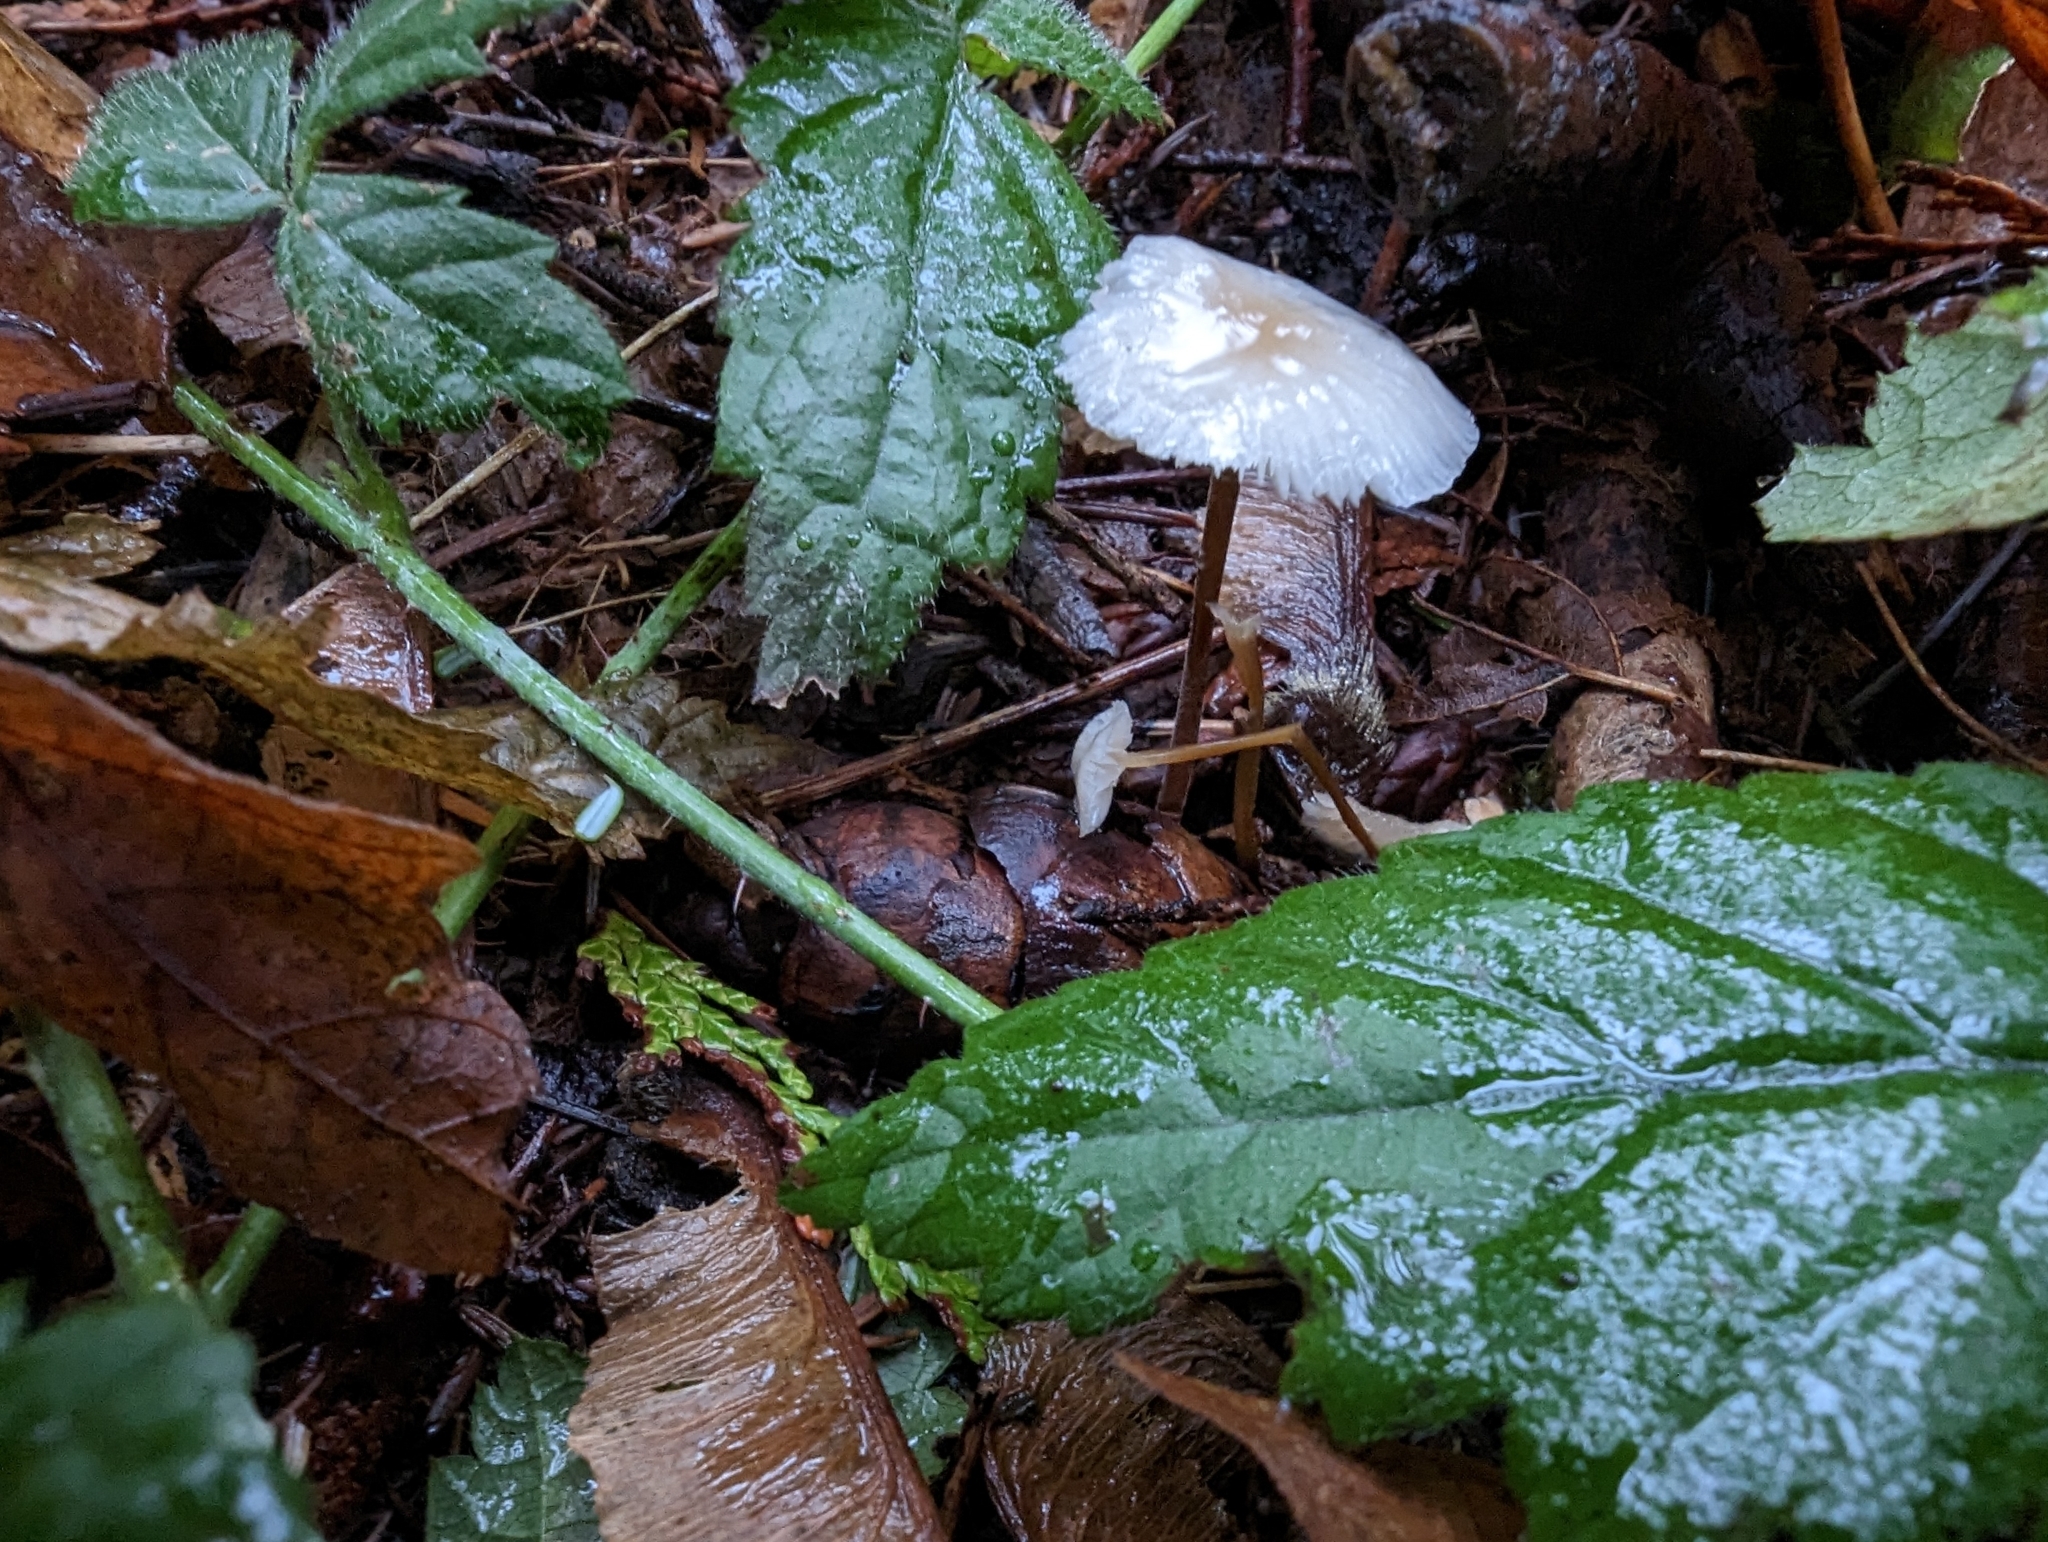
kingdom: Fungi
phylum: Basidiomycota
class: Agaricomycetes
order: Agaricales
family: Physalacriaceae
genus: Strobilurus
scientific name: Strobilurus trullisatus
